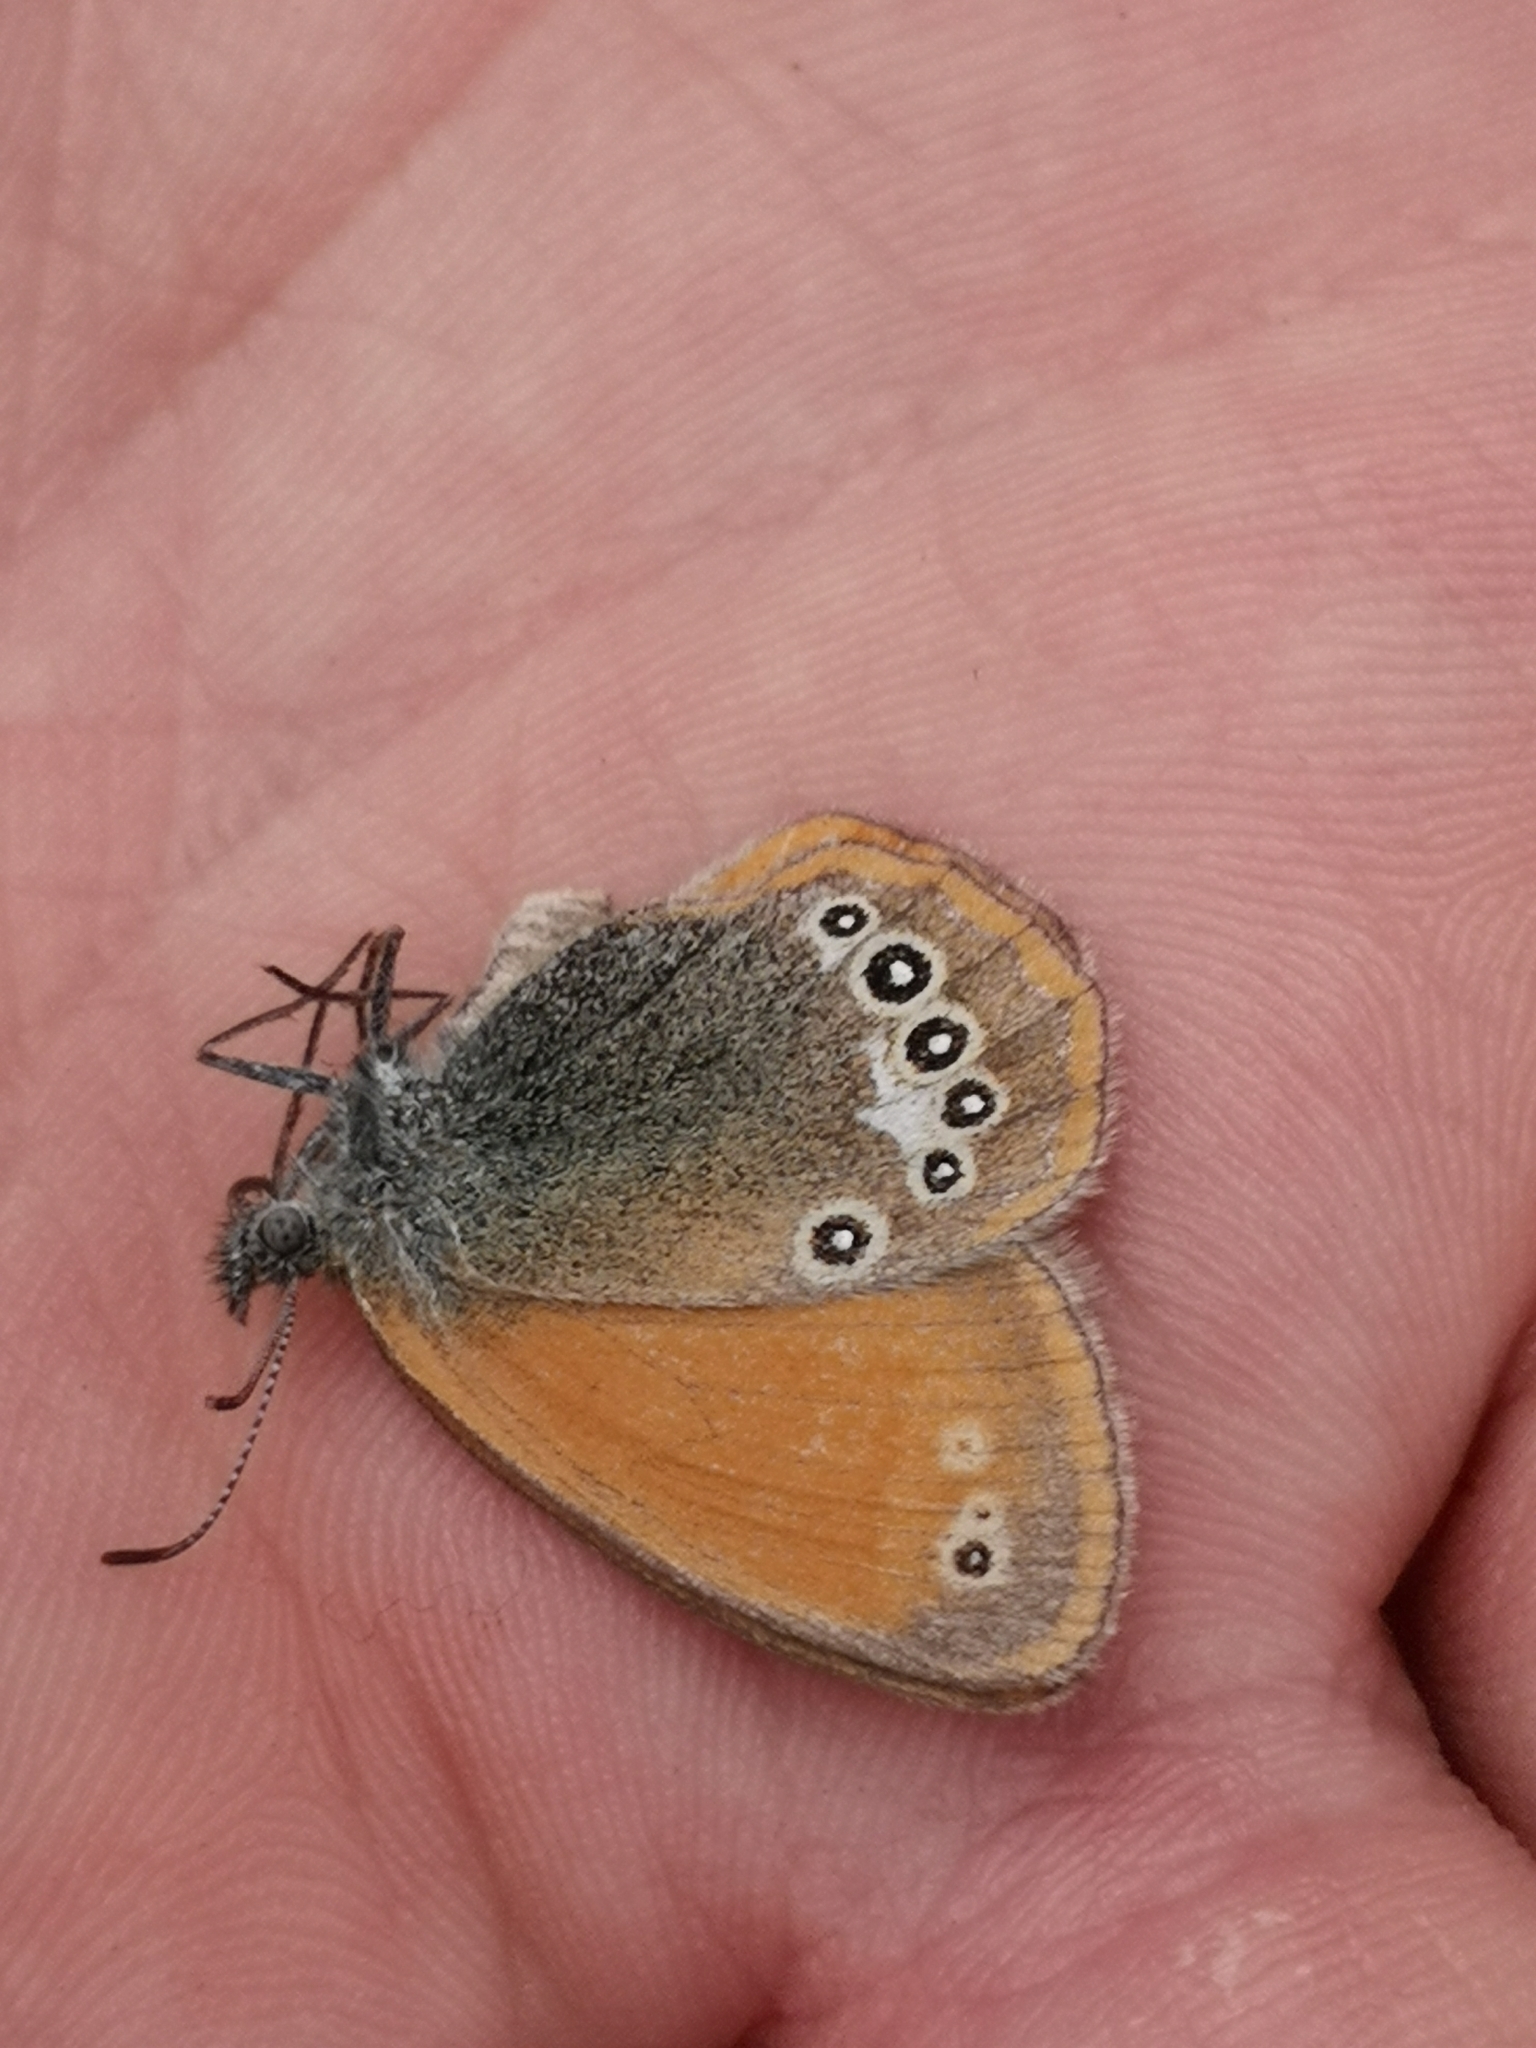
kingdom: Animalia
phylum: Arthropoda
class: Insecta
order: Lepidoptera
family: Nymphalidae
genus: Coenonympha
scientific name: Coenonympha iphis
